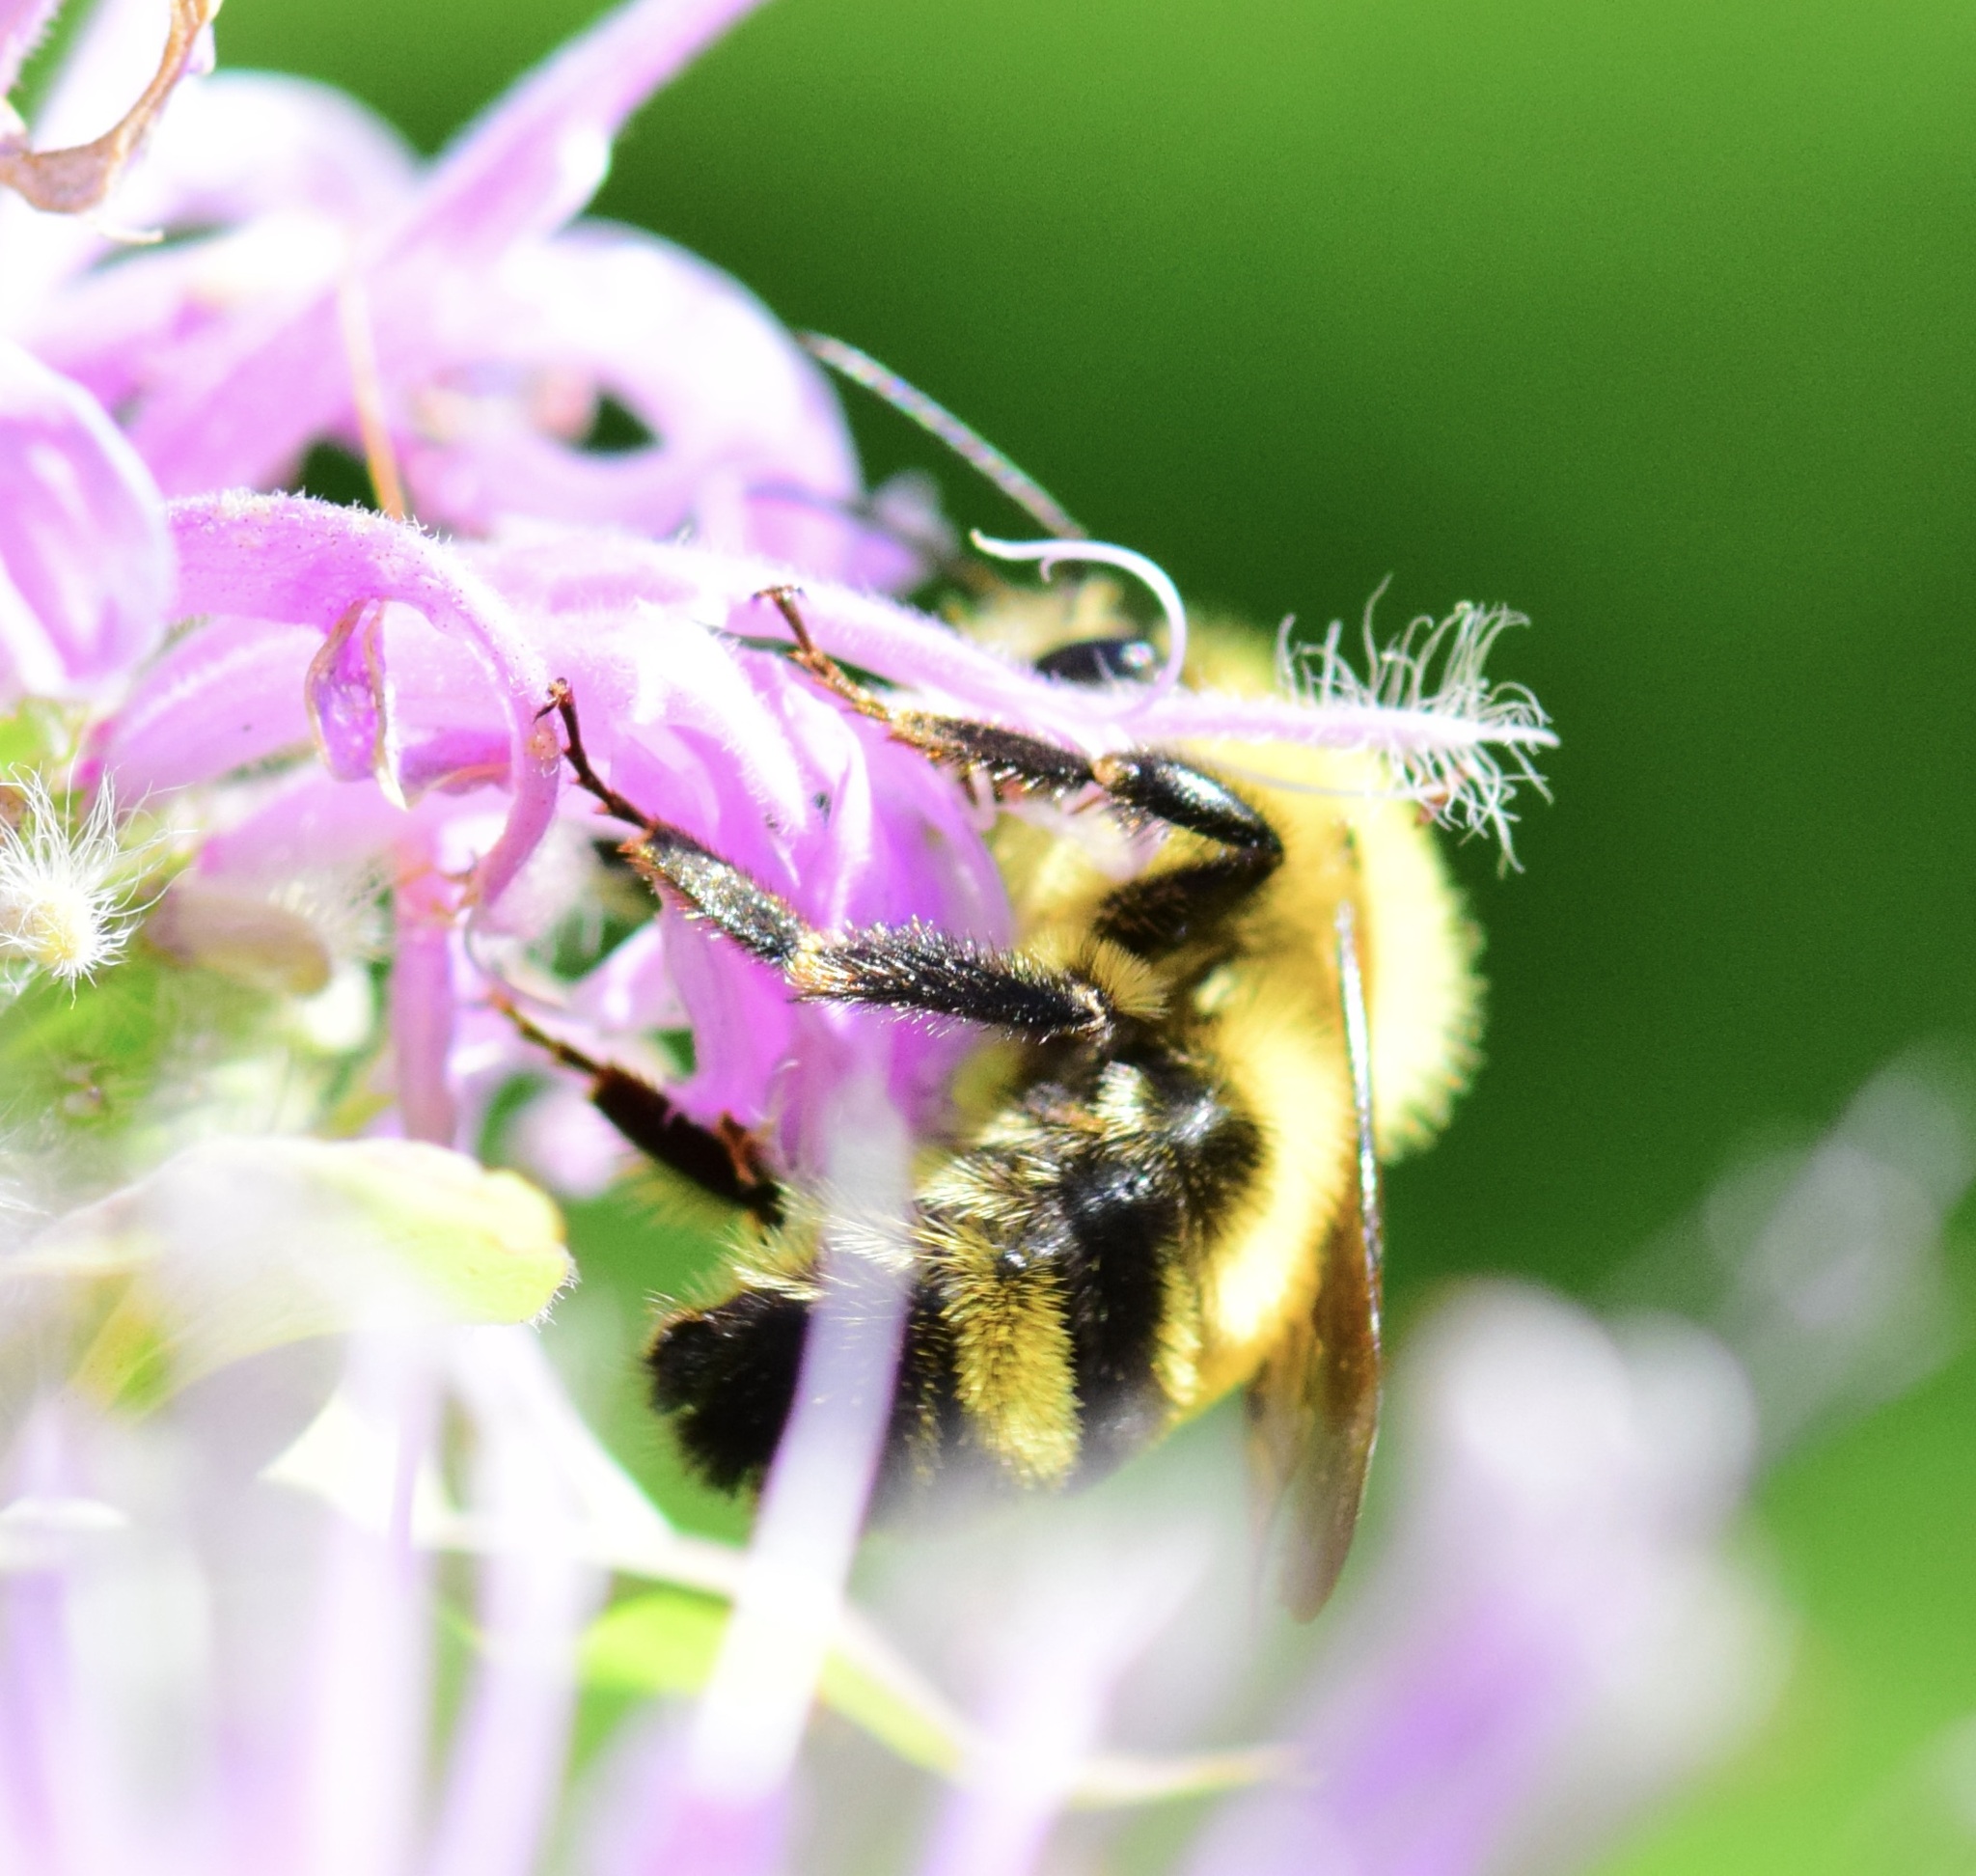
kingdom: Animalia
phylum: Arthropoda
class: Insecta
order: Hymenoptera
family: Apidae
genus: Bombus
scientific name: Bombus bimaculatus
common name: Two-spotted bumble bee
